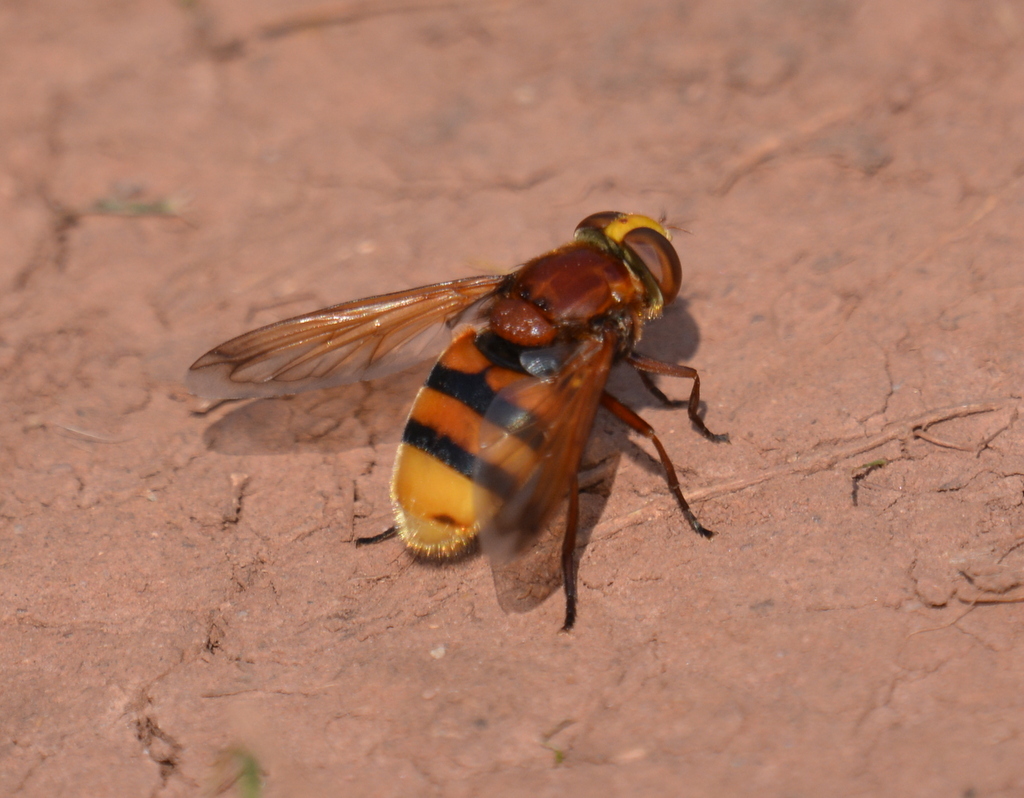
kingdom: Animalia
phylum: Arthropoda
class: Insecta
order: Diptera
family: Syrphidae
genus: Volucella
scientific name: Volucella zonaria
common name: Hornet hoverfly
